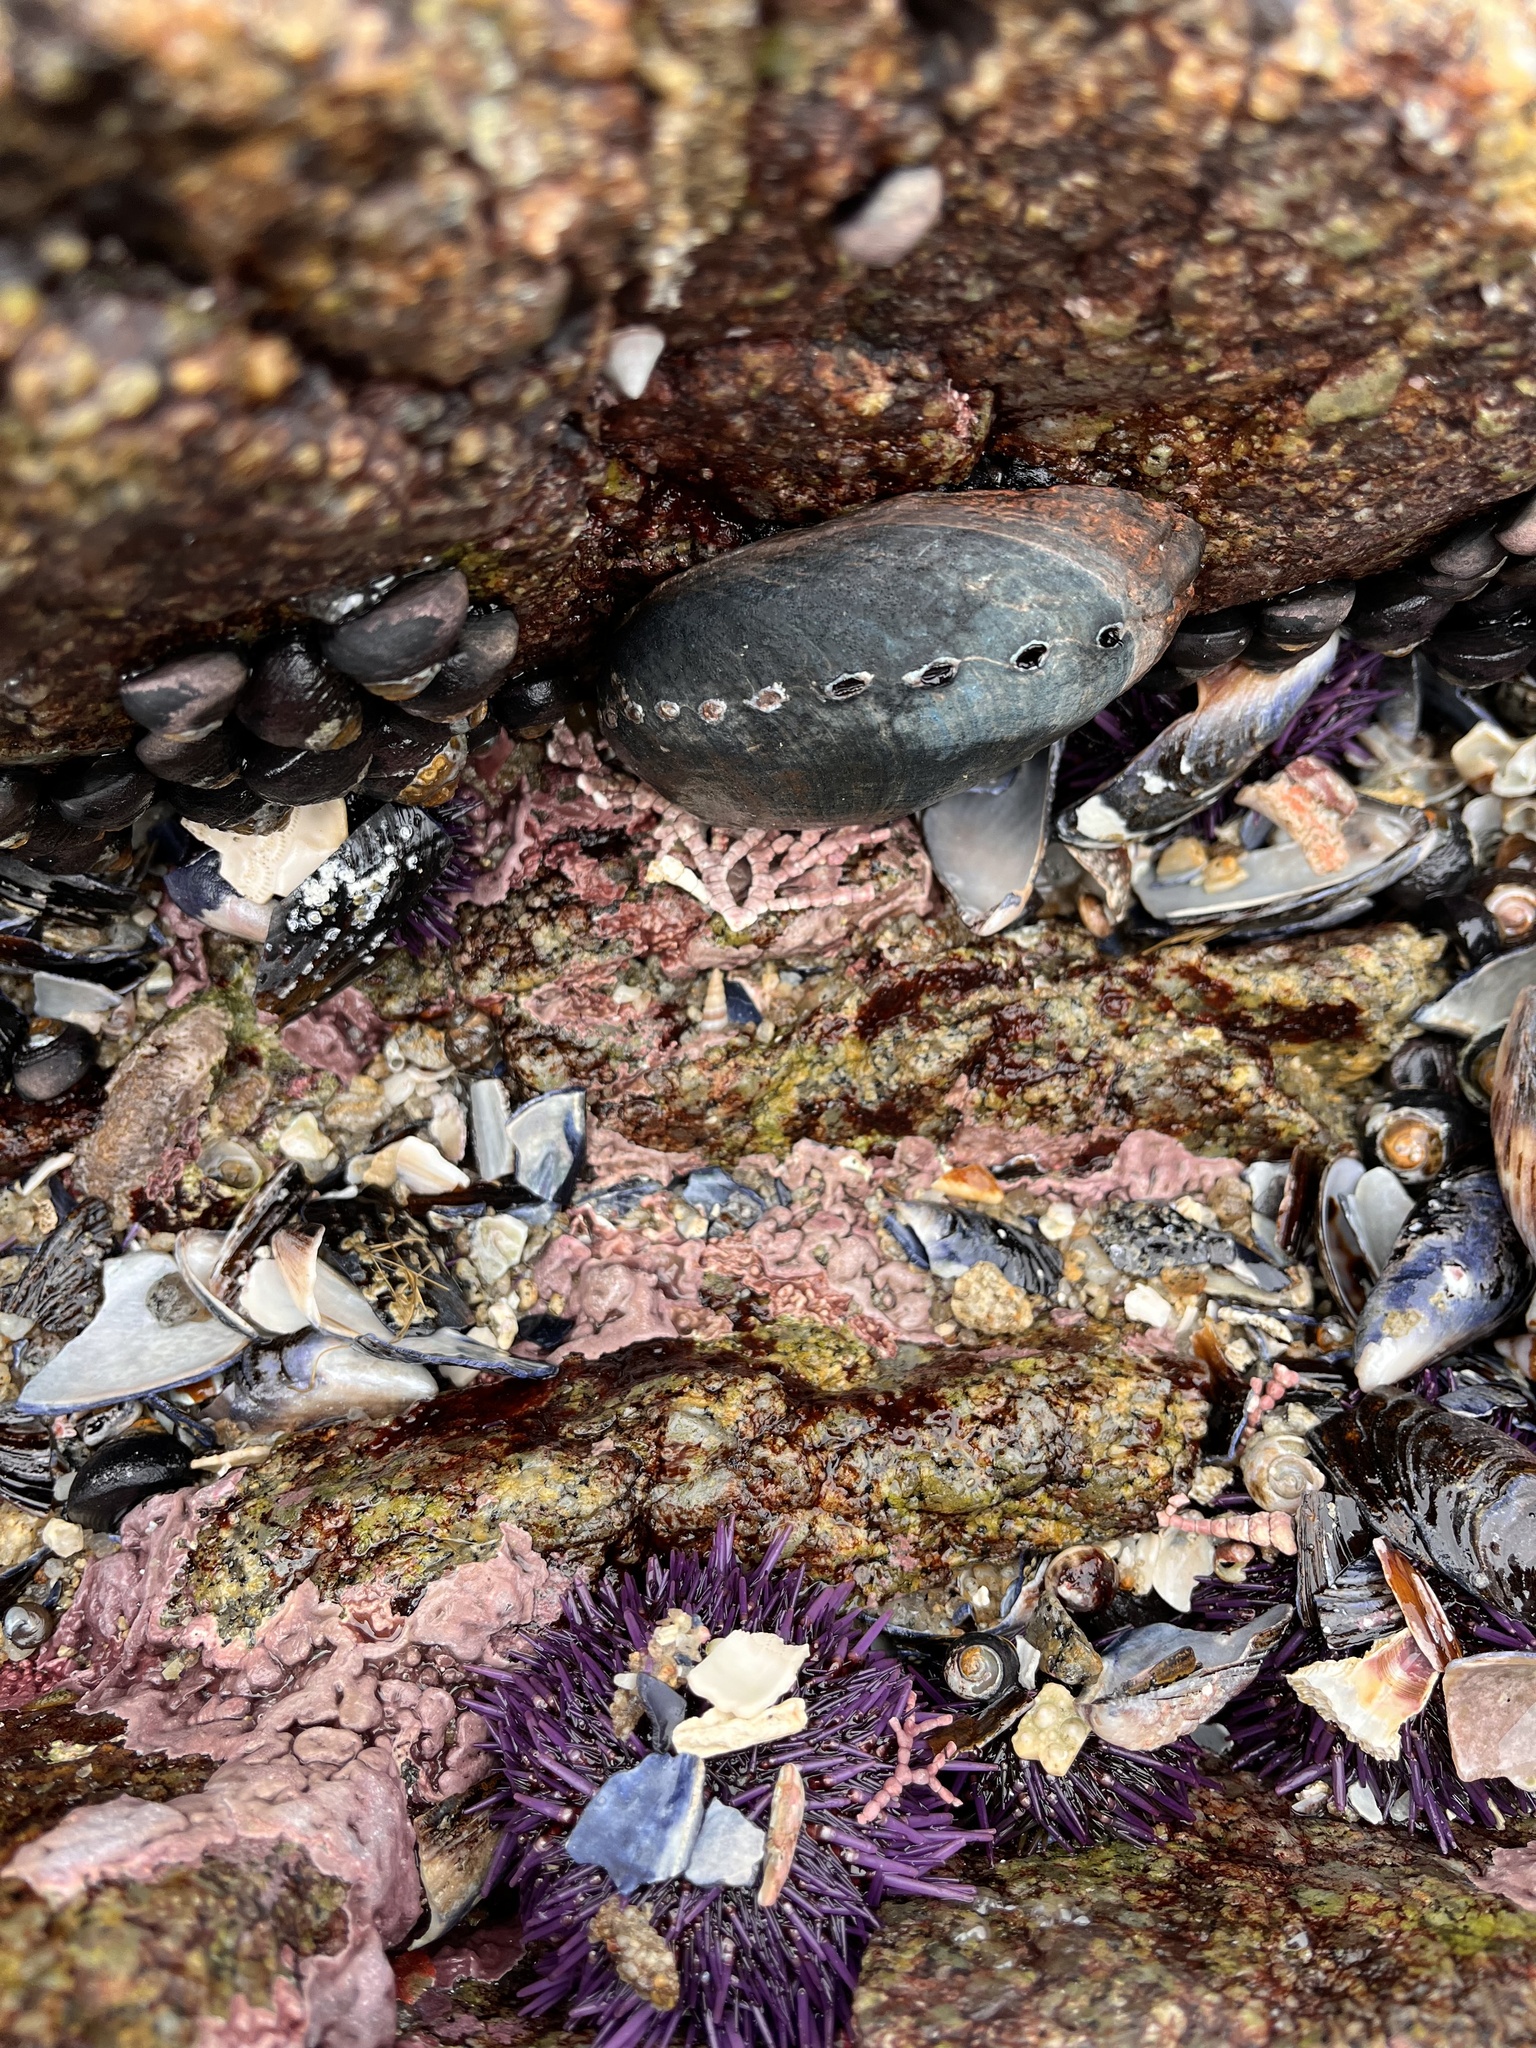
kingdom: Animalia
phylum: Mollusca
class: Gastropoda
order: Lepetellida
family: Haliotidae
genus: Haliotis
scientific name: Haliotis cracherodii
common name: Black abalone
